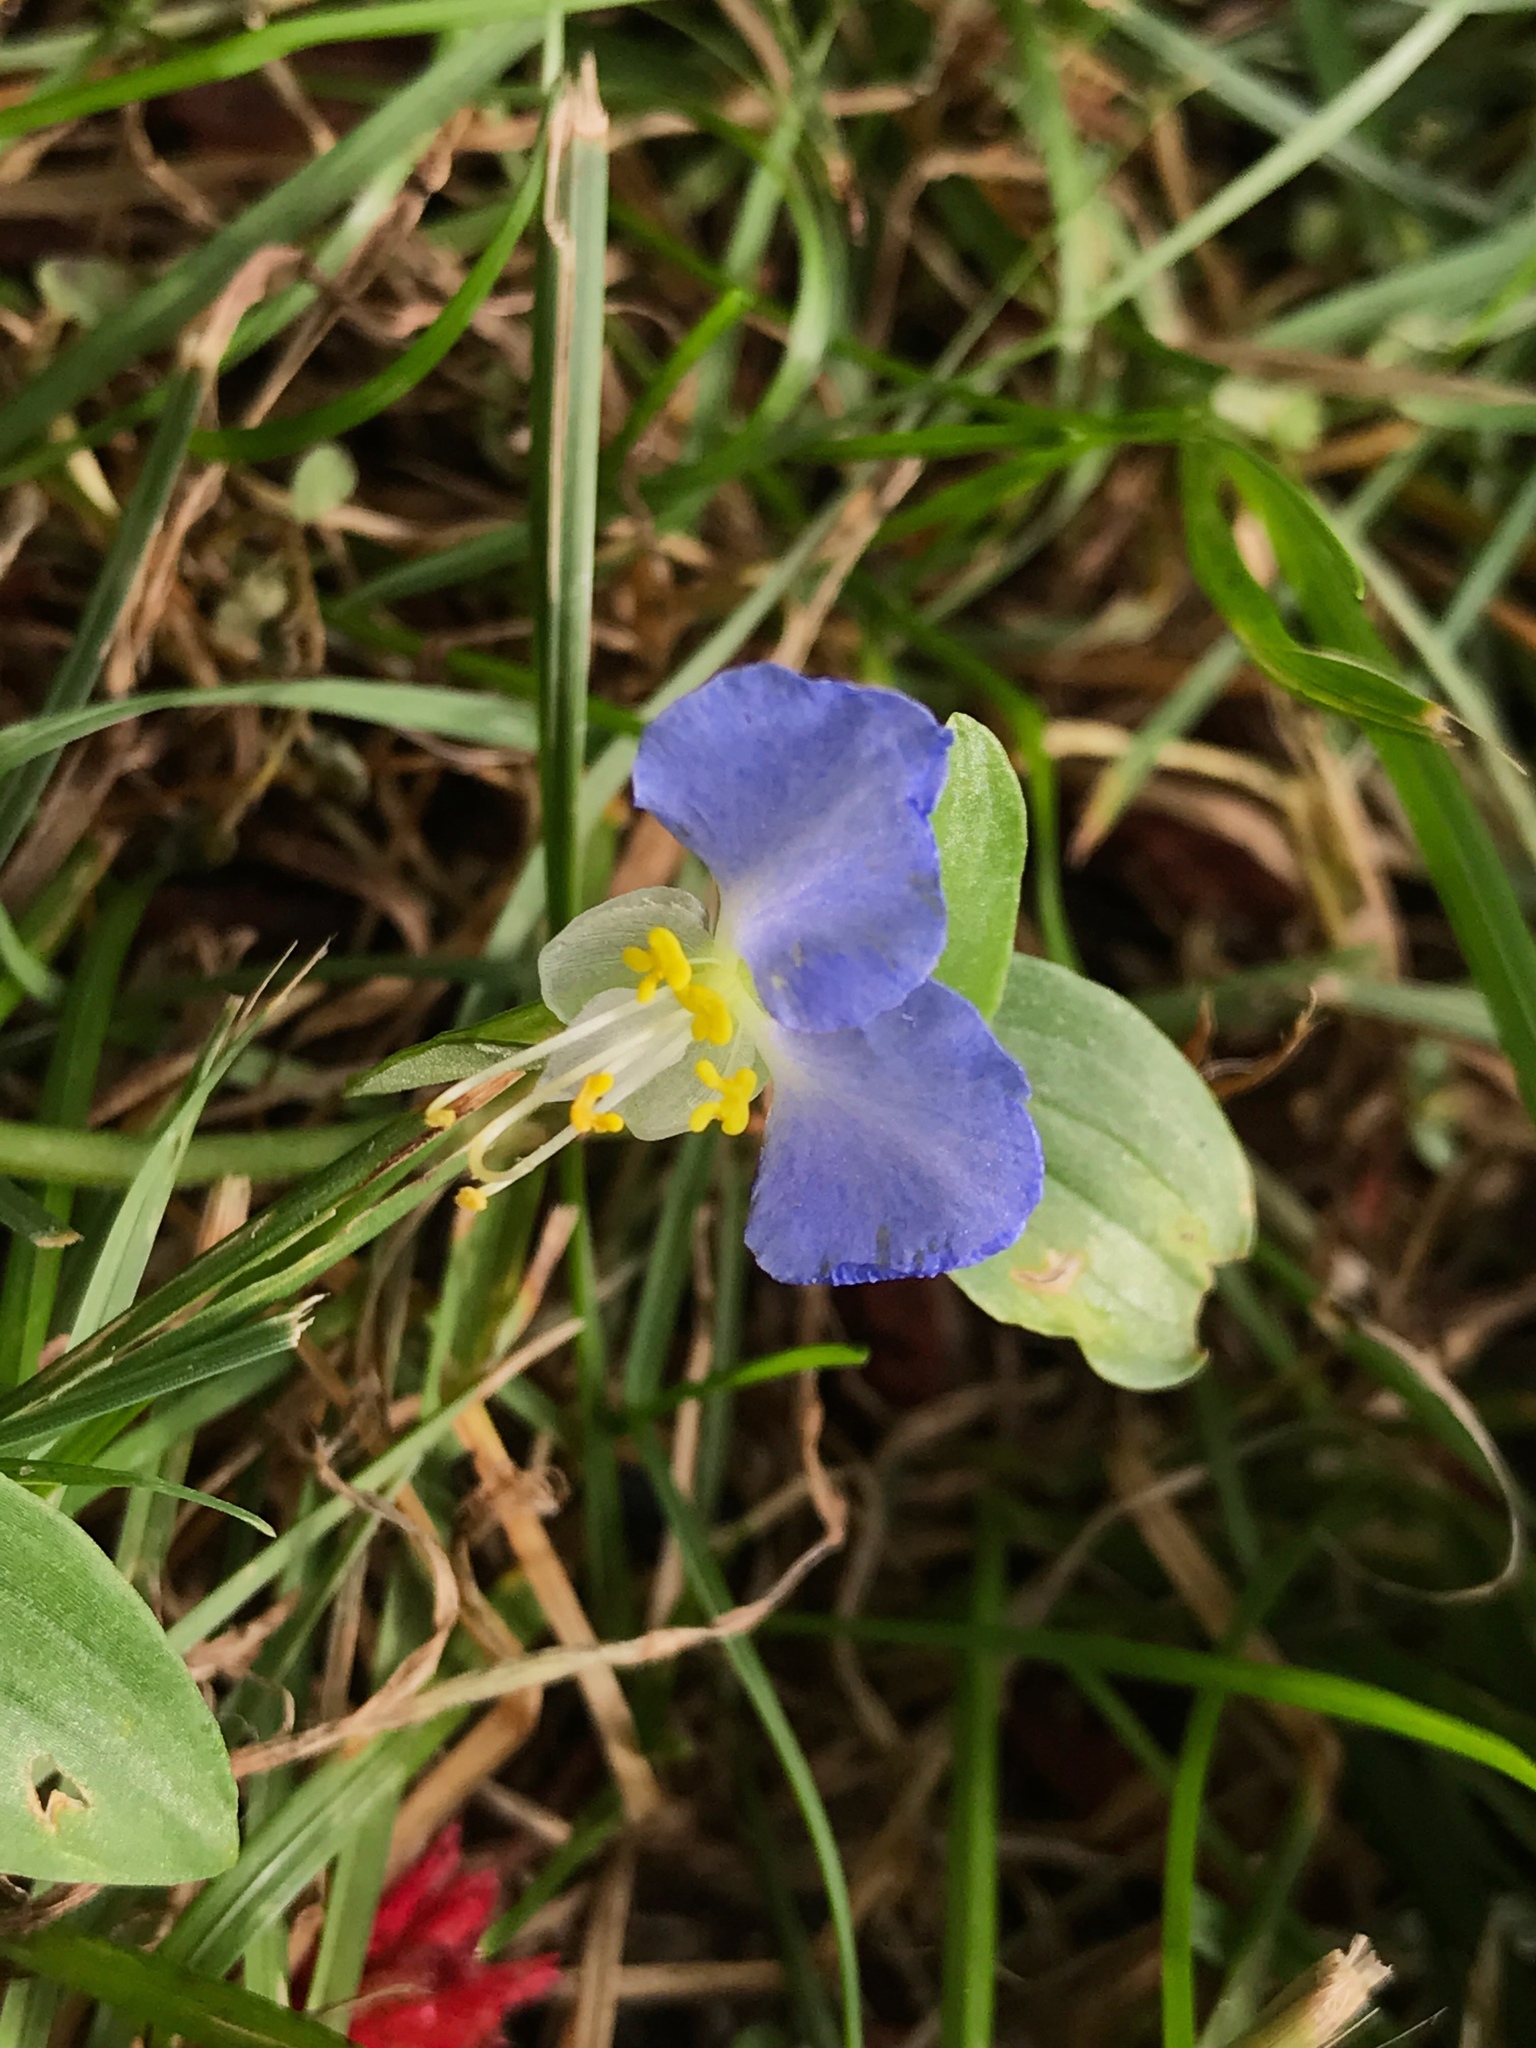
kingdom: Plantae
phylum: Tracheophyta
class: Liliopsida
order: Commelinales
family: Commelinaceae
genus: Commelina
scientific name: Commelina communis
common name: Asiatic dayflower
